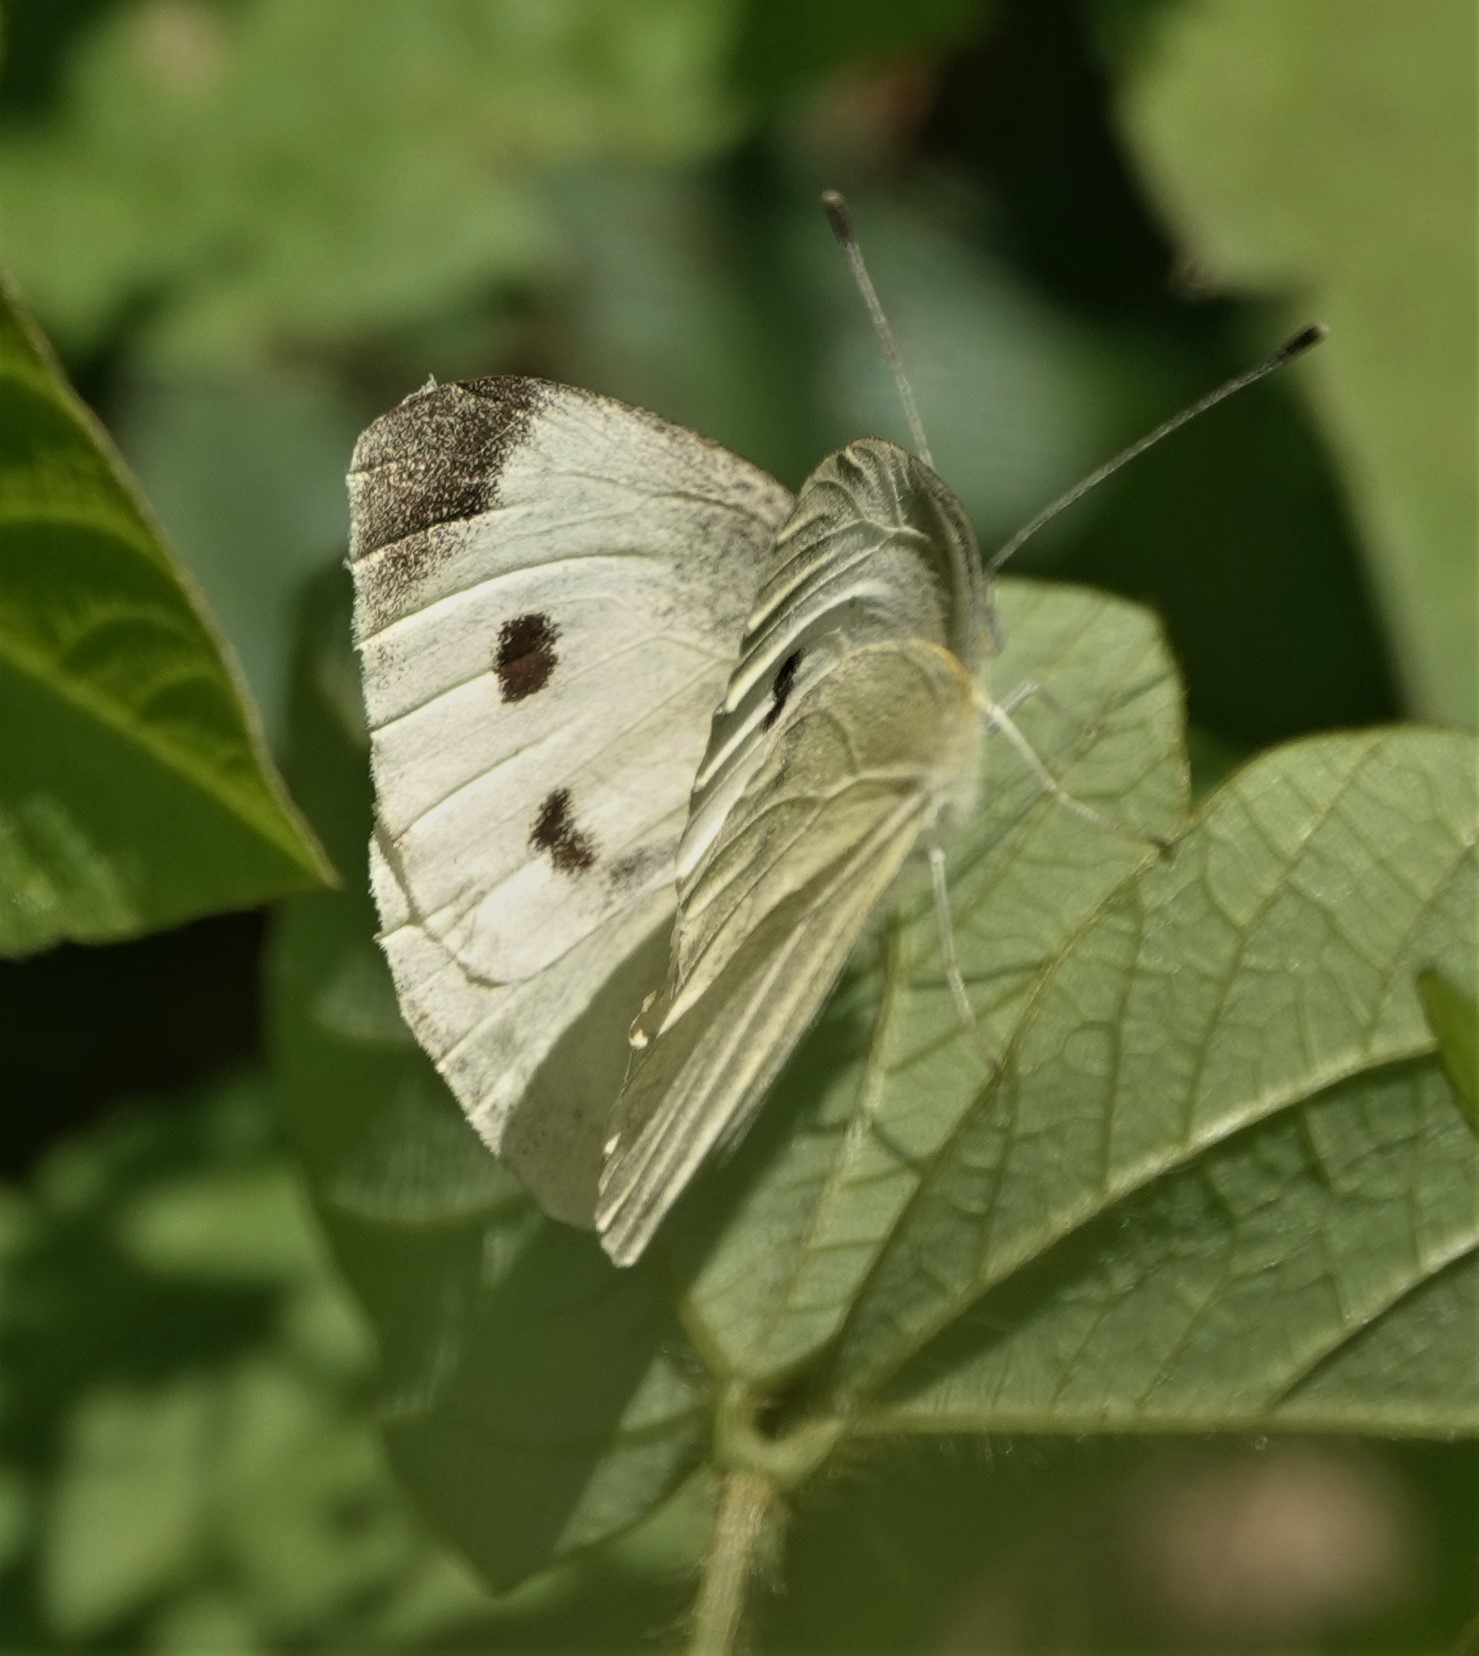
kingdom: Animalia
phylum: Arthropoda
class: Insecta
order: Lepidoptera
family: Pieridae
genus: Pieris
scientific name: Pieris rapae
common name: Small white
